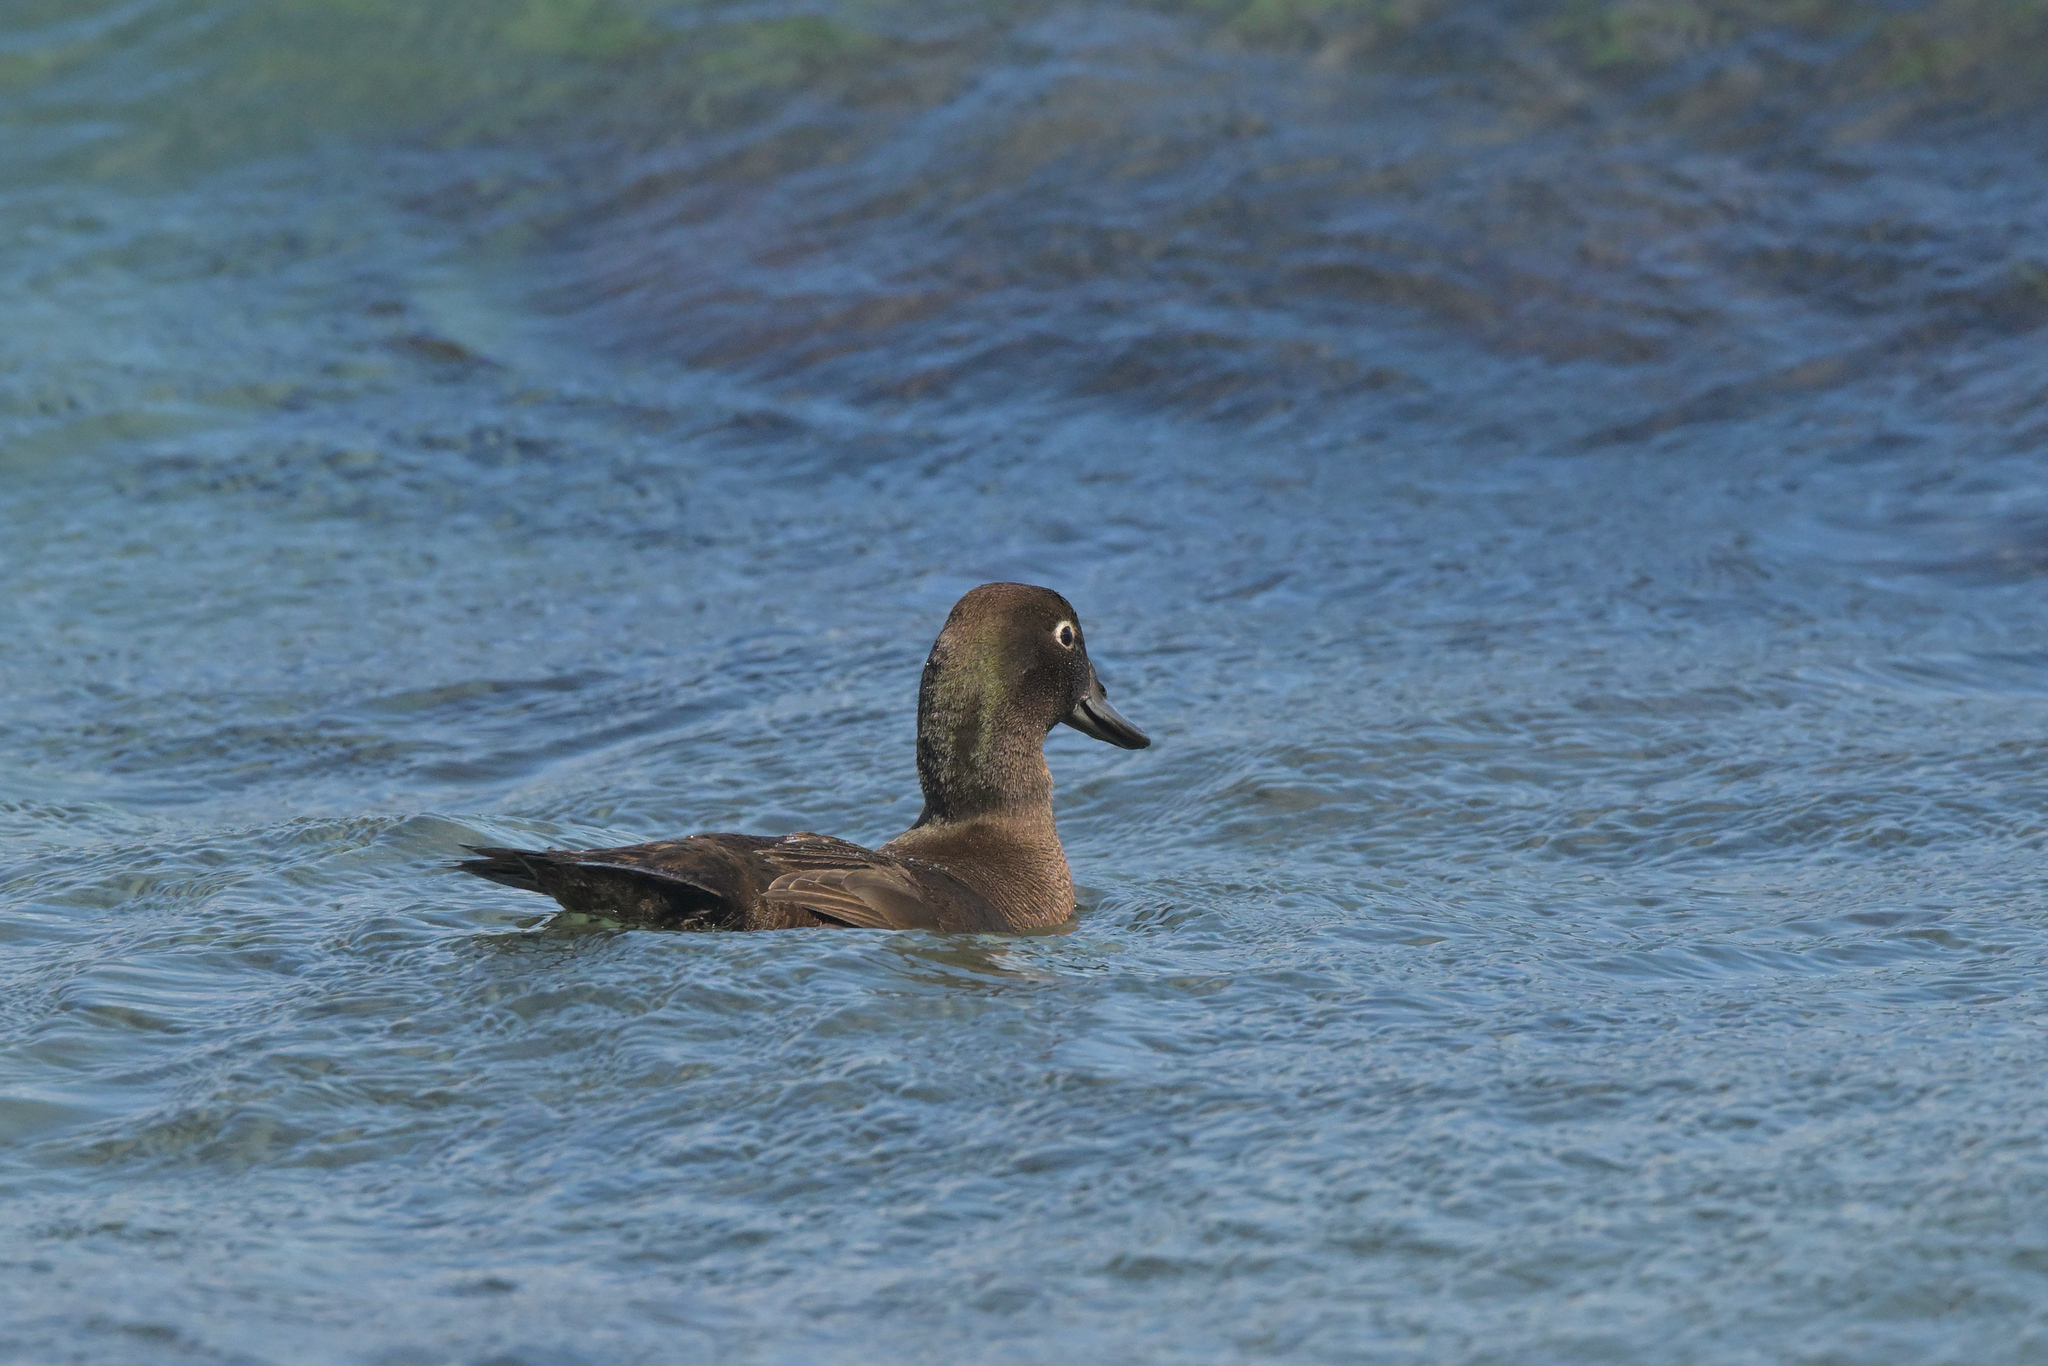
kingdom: Animalia
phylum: Chordata
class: Aves
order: Anseriformes
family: Anatidae
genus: Anas
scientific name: Anas aucklandica
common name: Auckland teal
